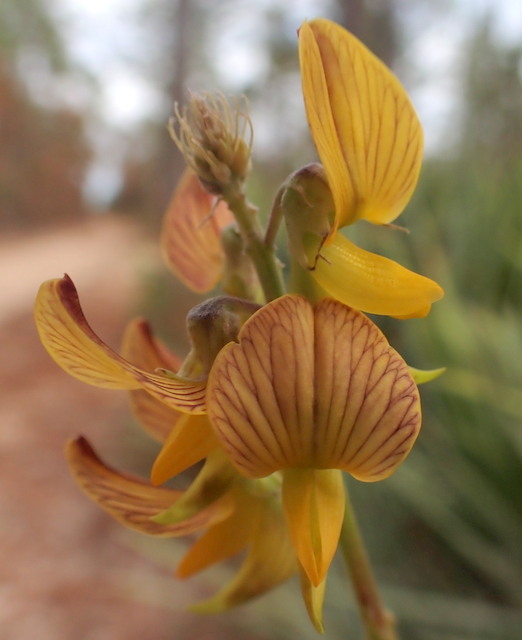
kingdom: Plantae
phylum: Tracheophyta
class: Magnoliopsida
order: Fabales
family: Fabaceae
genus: Crotalaria
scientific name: Crotalaria pallida
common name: Smooth rattlebox
